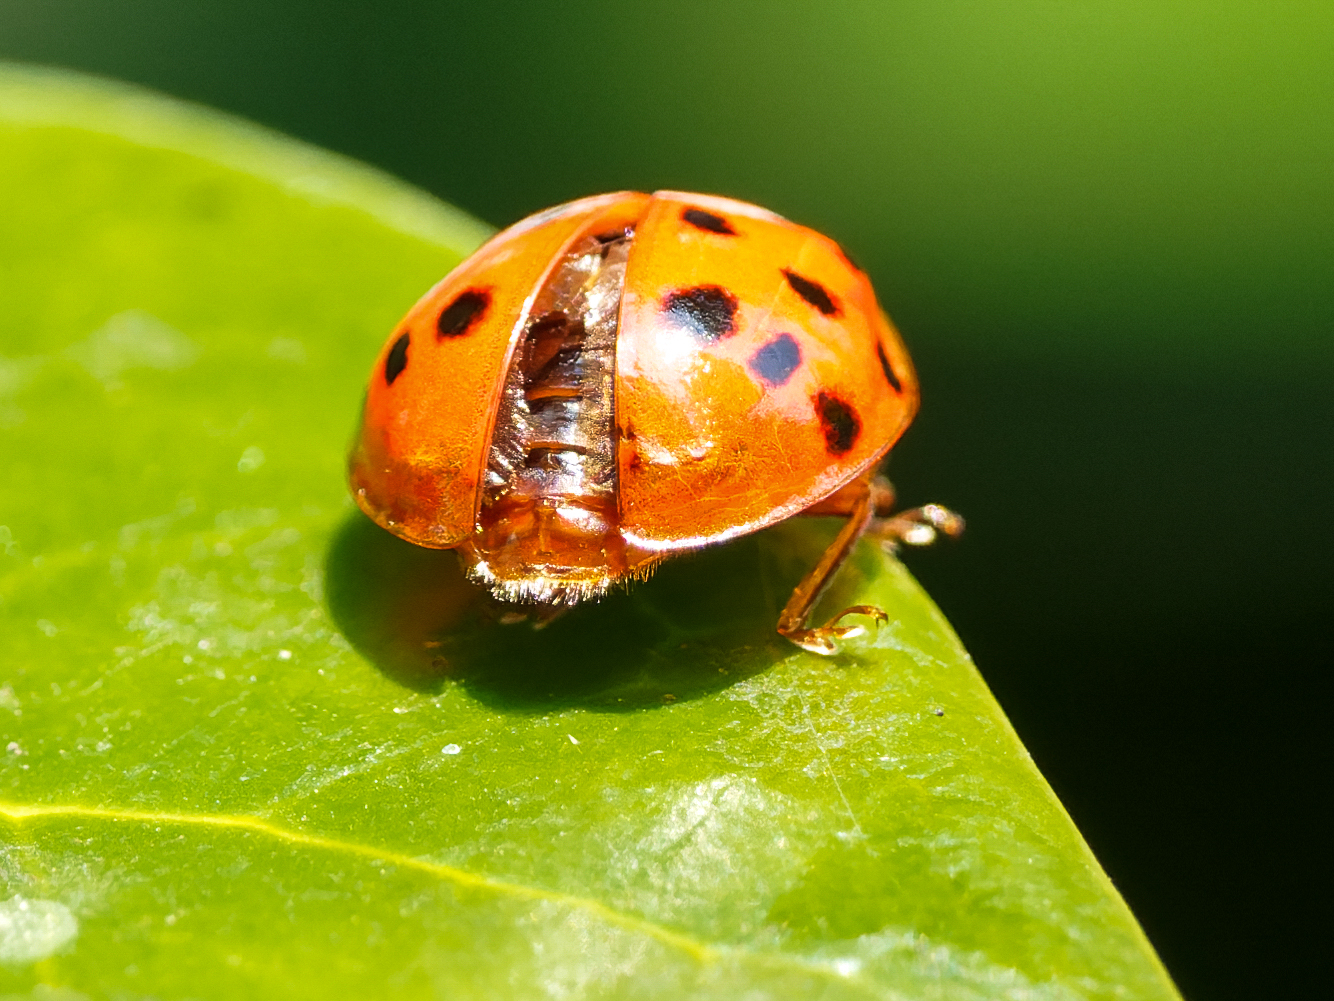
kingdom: Animalia
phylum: Arthropoda
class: Insecta
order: Coleoptera
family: Coccinellidae
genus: Harmonia
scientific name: Harmonia axyridis
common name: Harlequin ladybird
